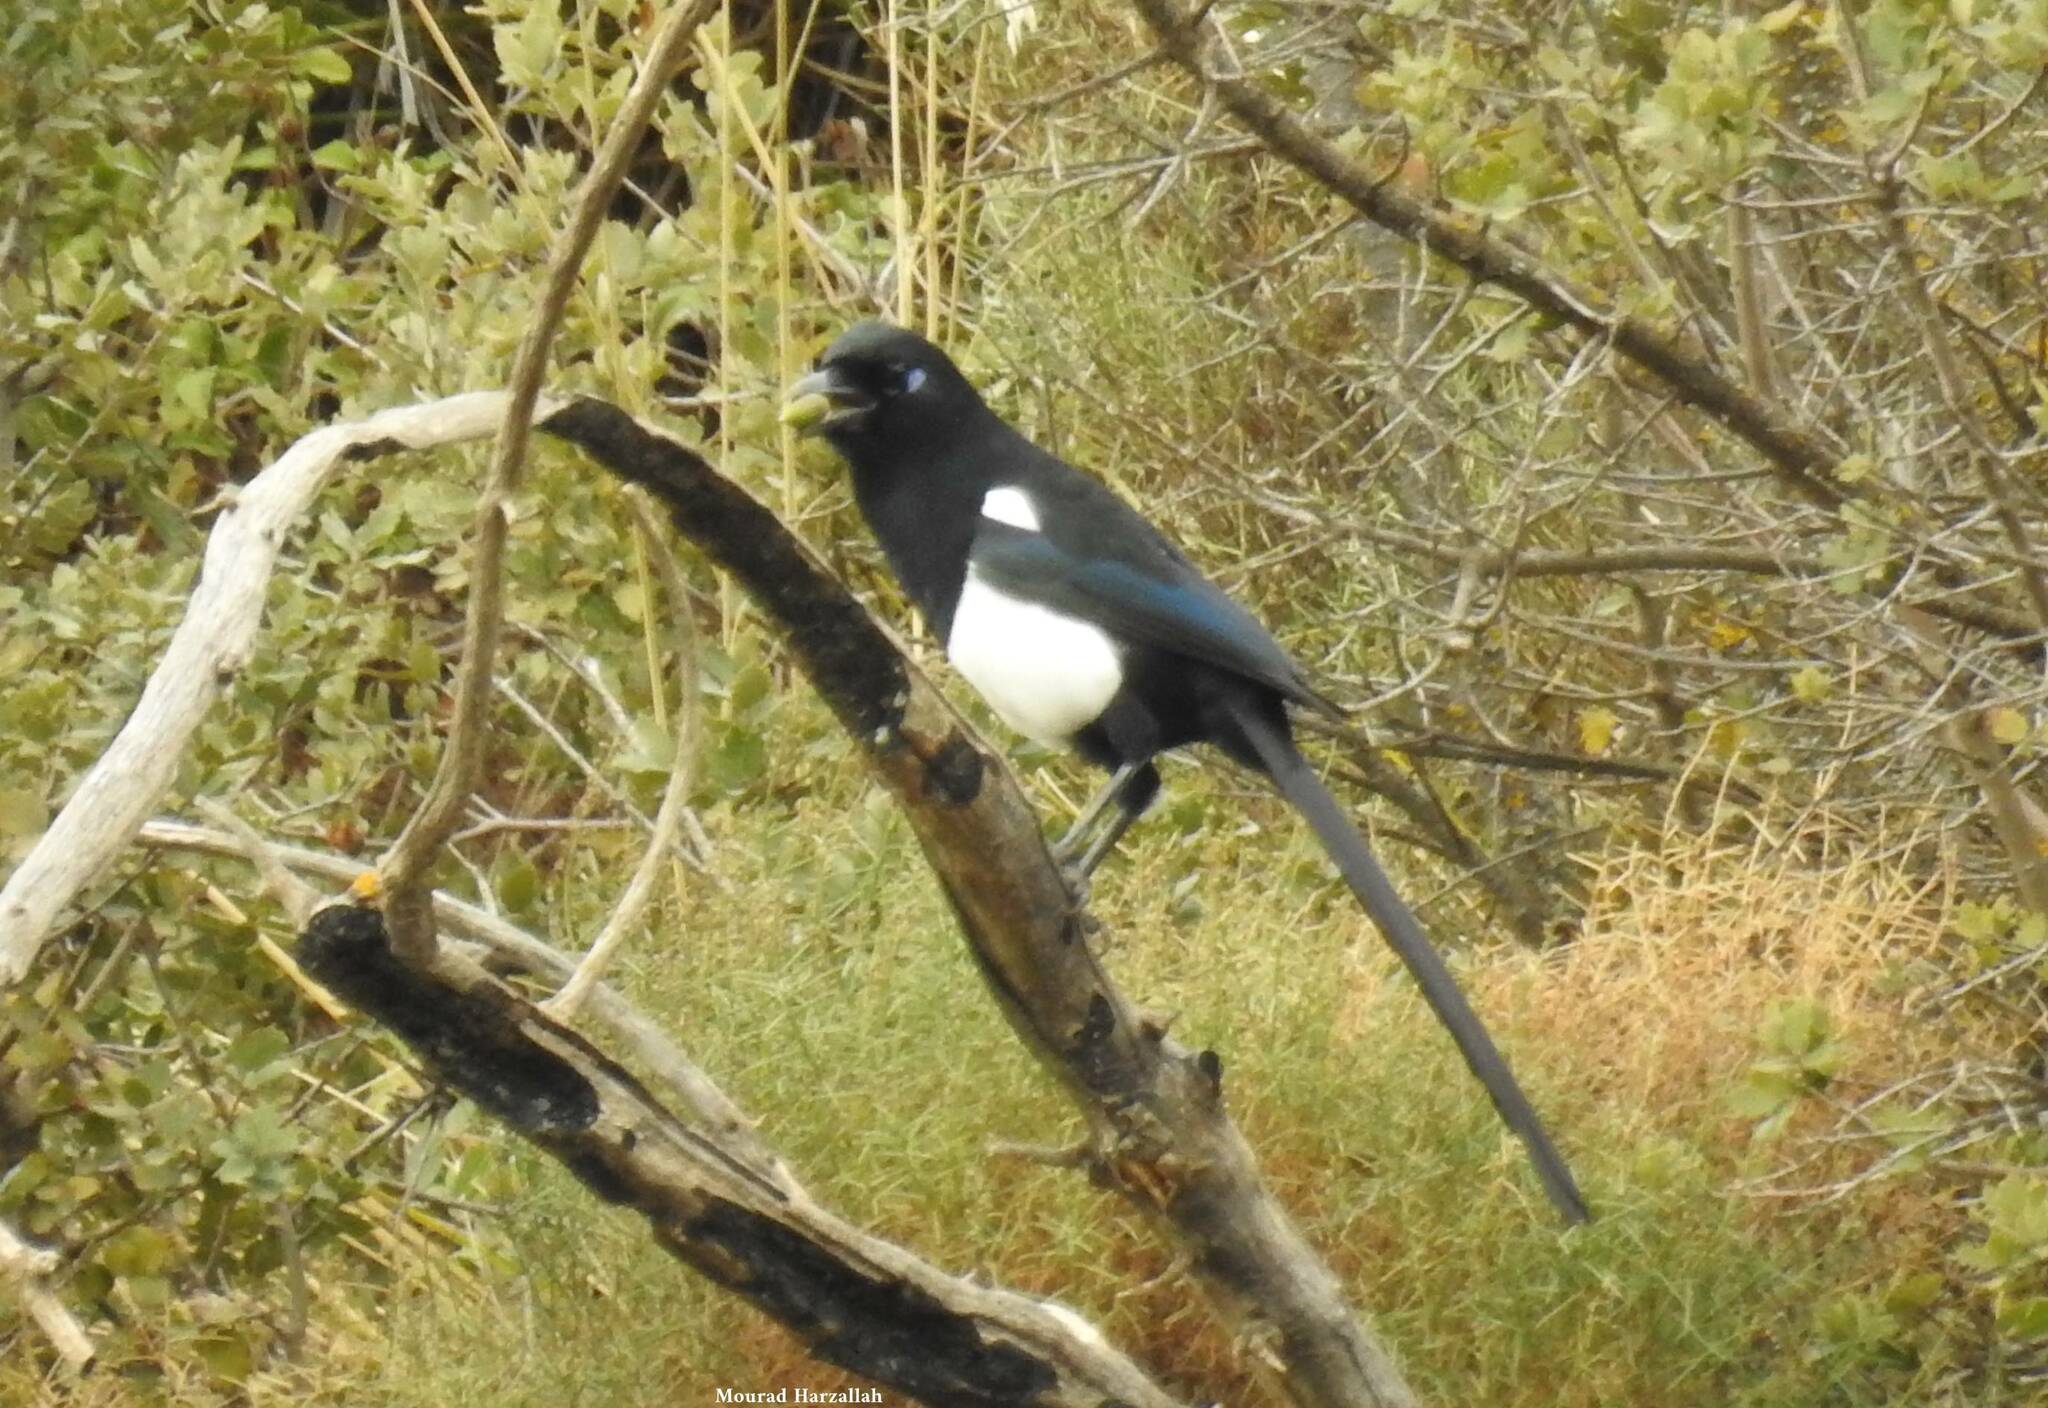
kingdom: Animalia
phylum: Chordata
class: Aves
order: Passeriformes
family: Corvidae
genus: Pica
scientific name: Pica mauritanica
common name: Maghreb magpie
